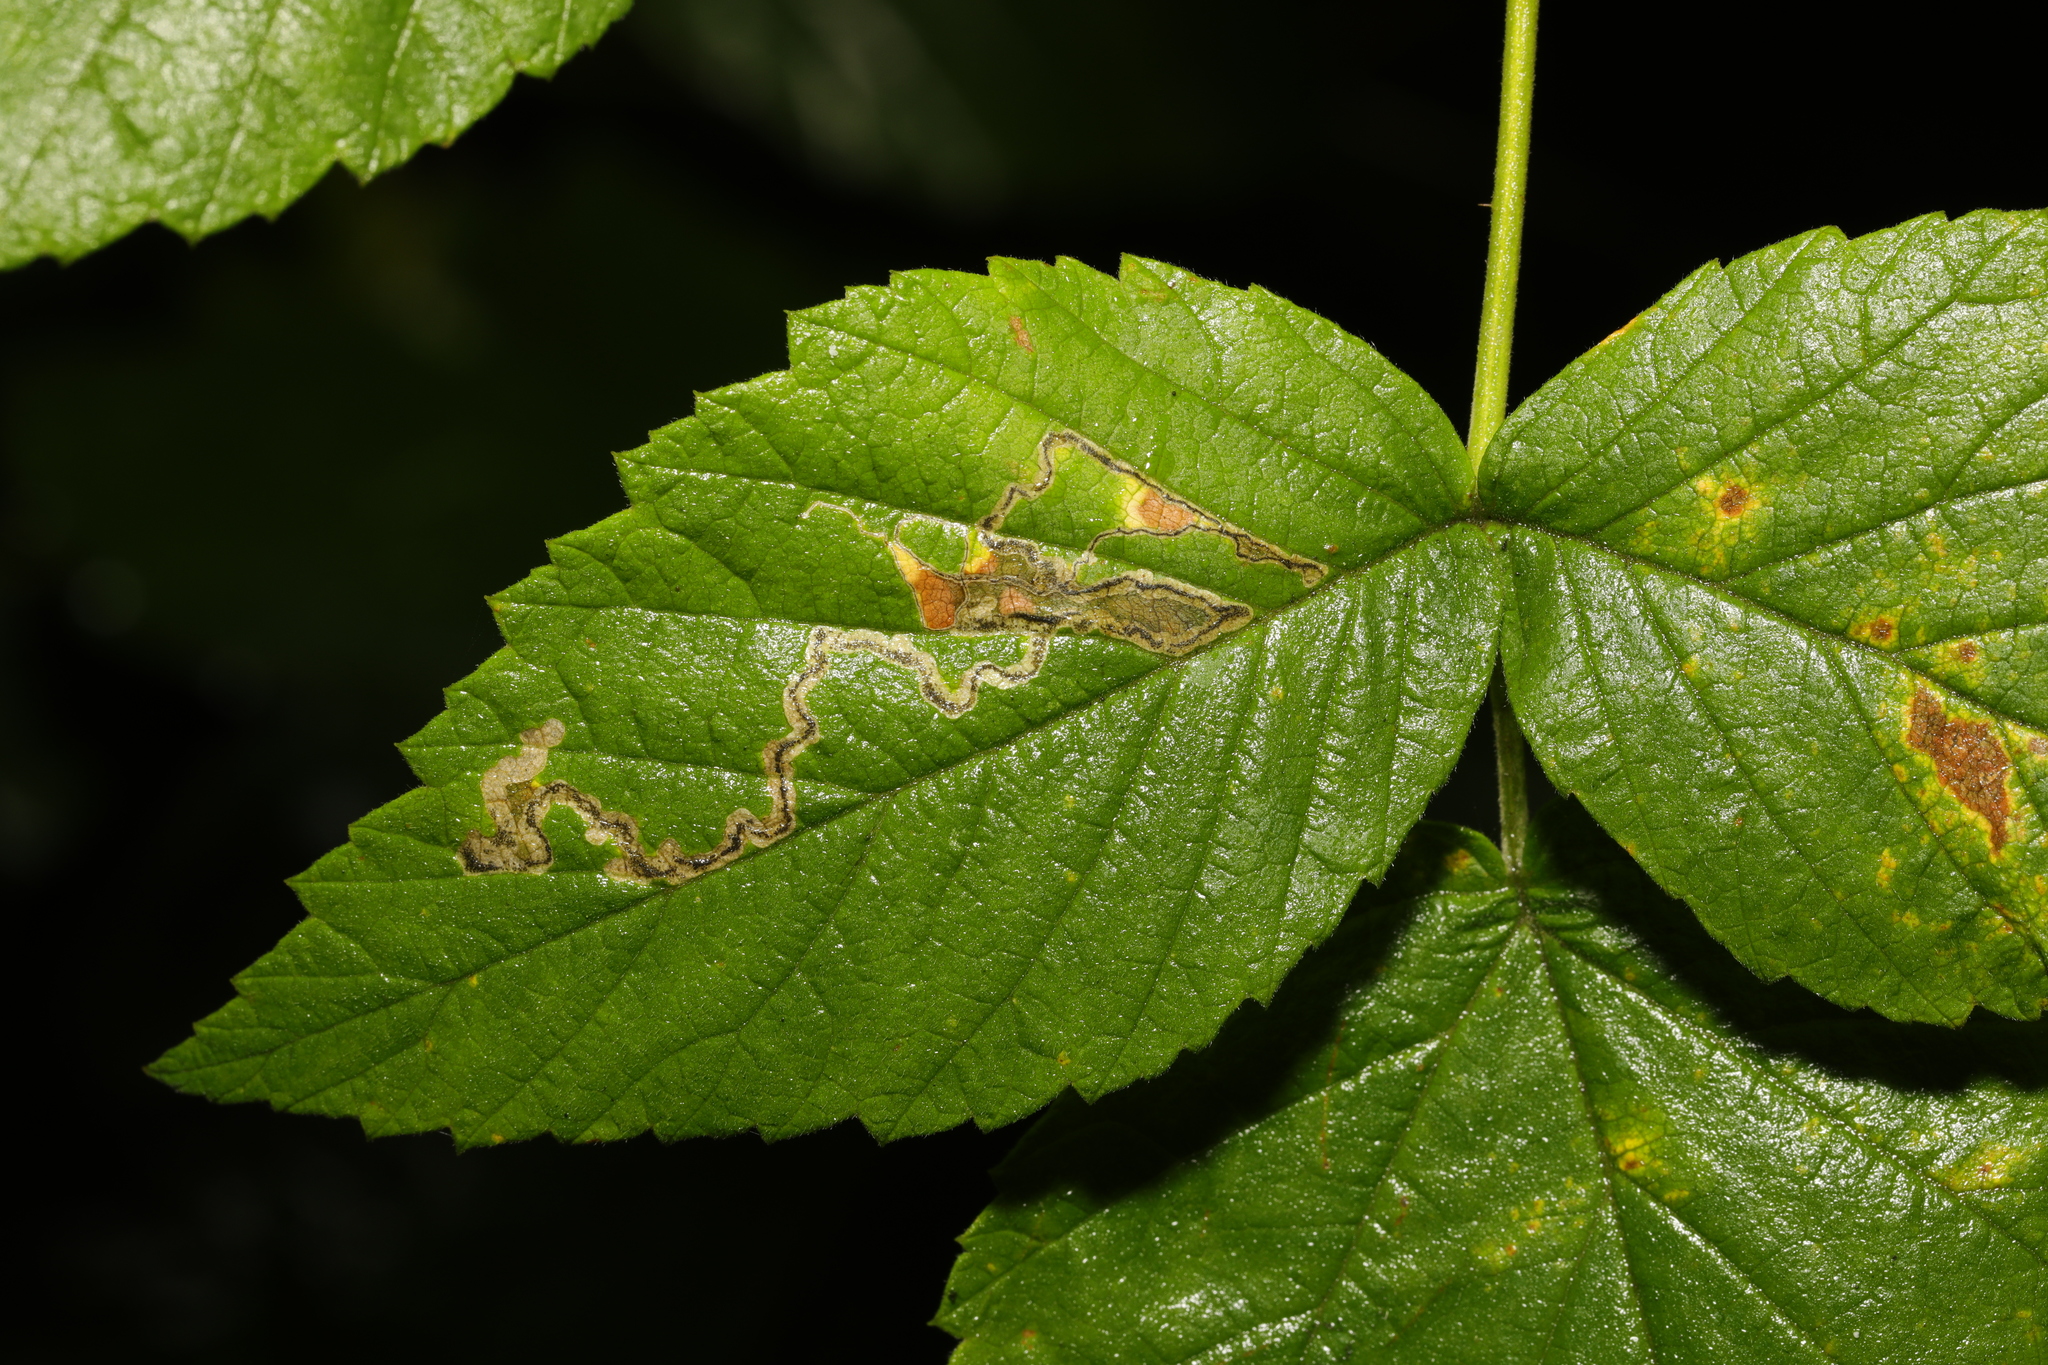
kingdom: Animalia
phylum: Arthropoda
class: Insecta
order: Lepidoptera
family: Nepticulidae
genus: Stigmella
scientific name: Stigmella aurella
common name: Golden pigmy
